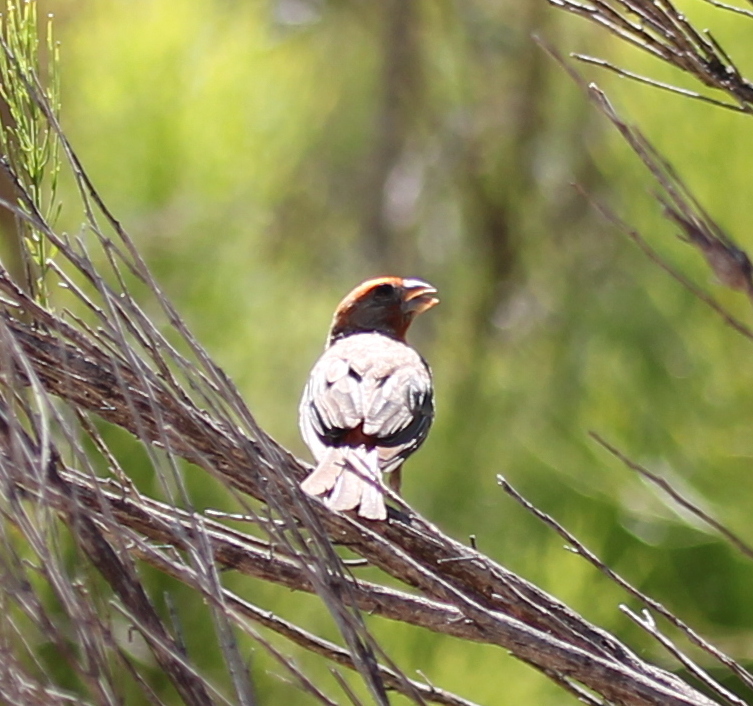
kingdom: Animalia
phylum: Chordata
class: Aves
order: Passeriformes
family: Fringillidae
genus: Haemorhous
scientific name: Haemorhous mexicanus
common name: House finch
